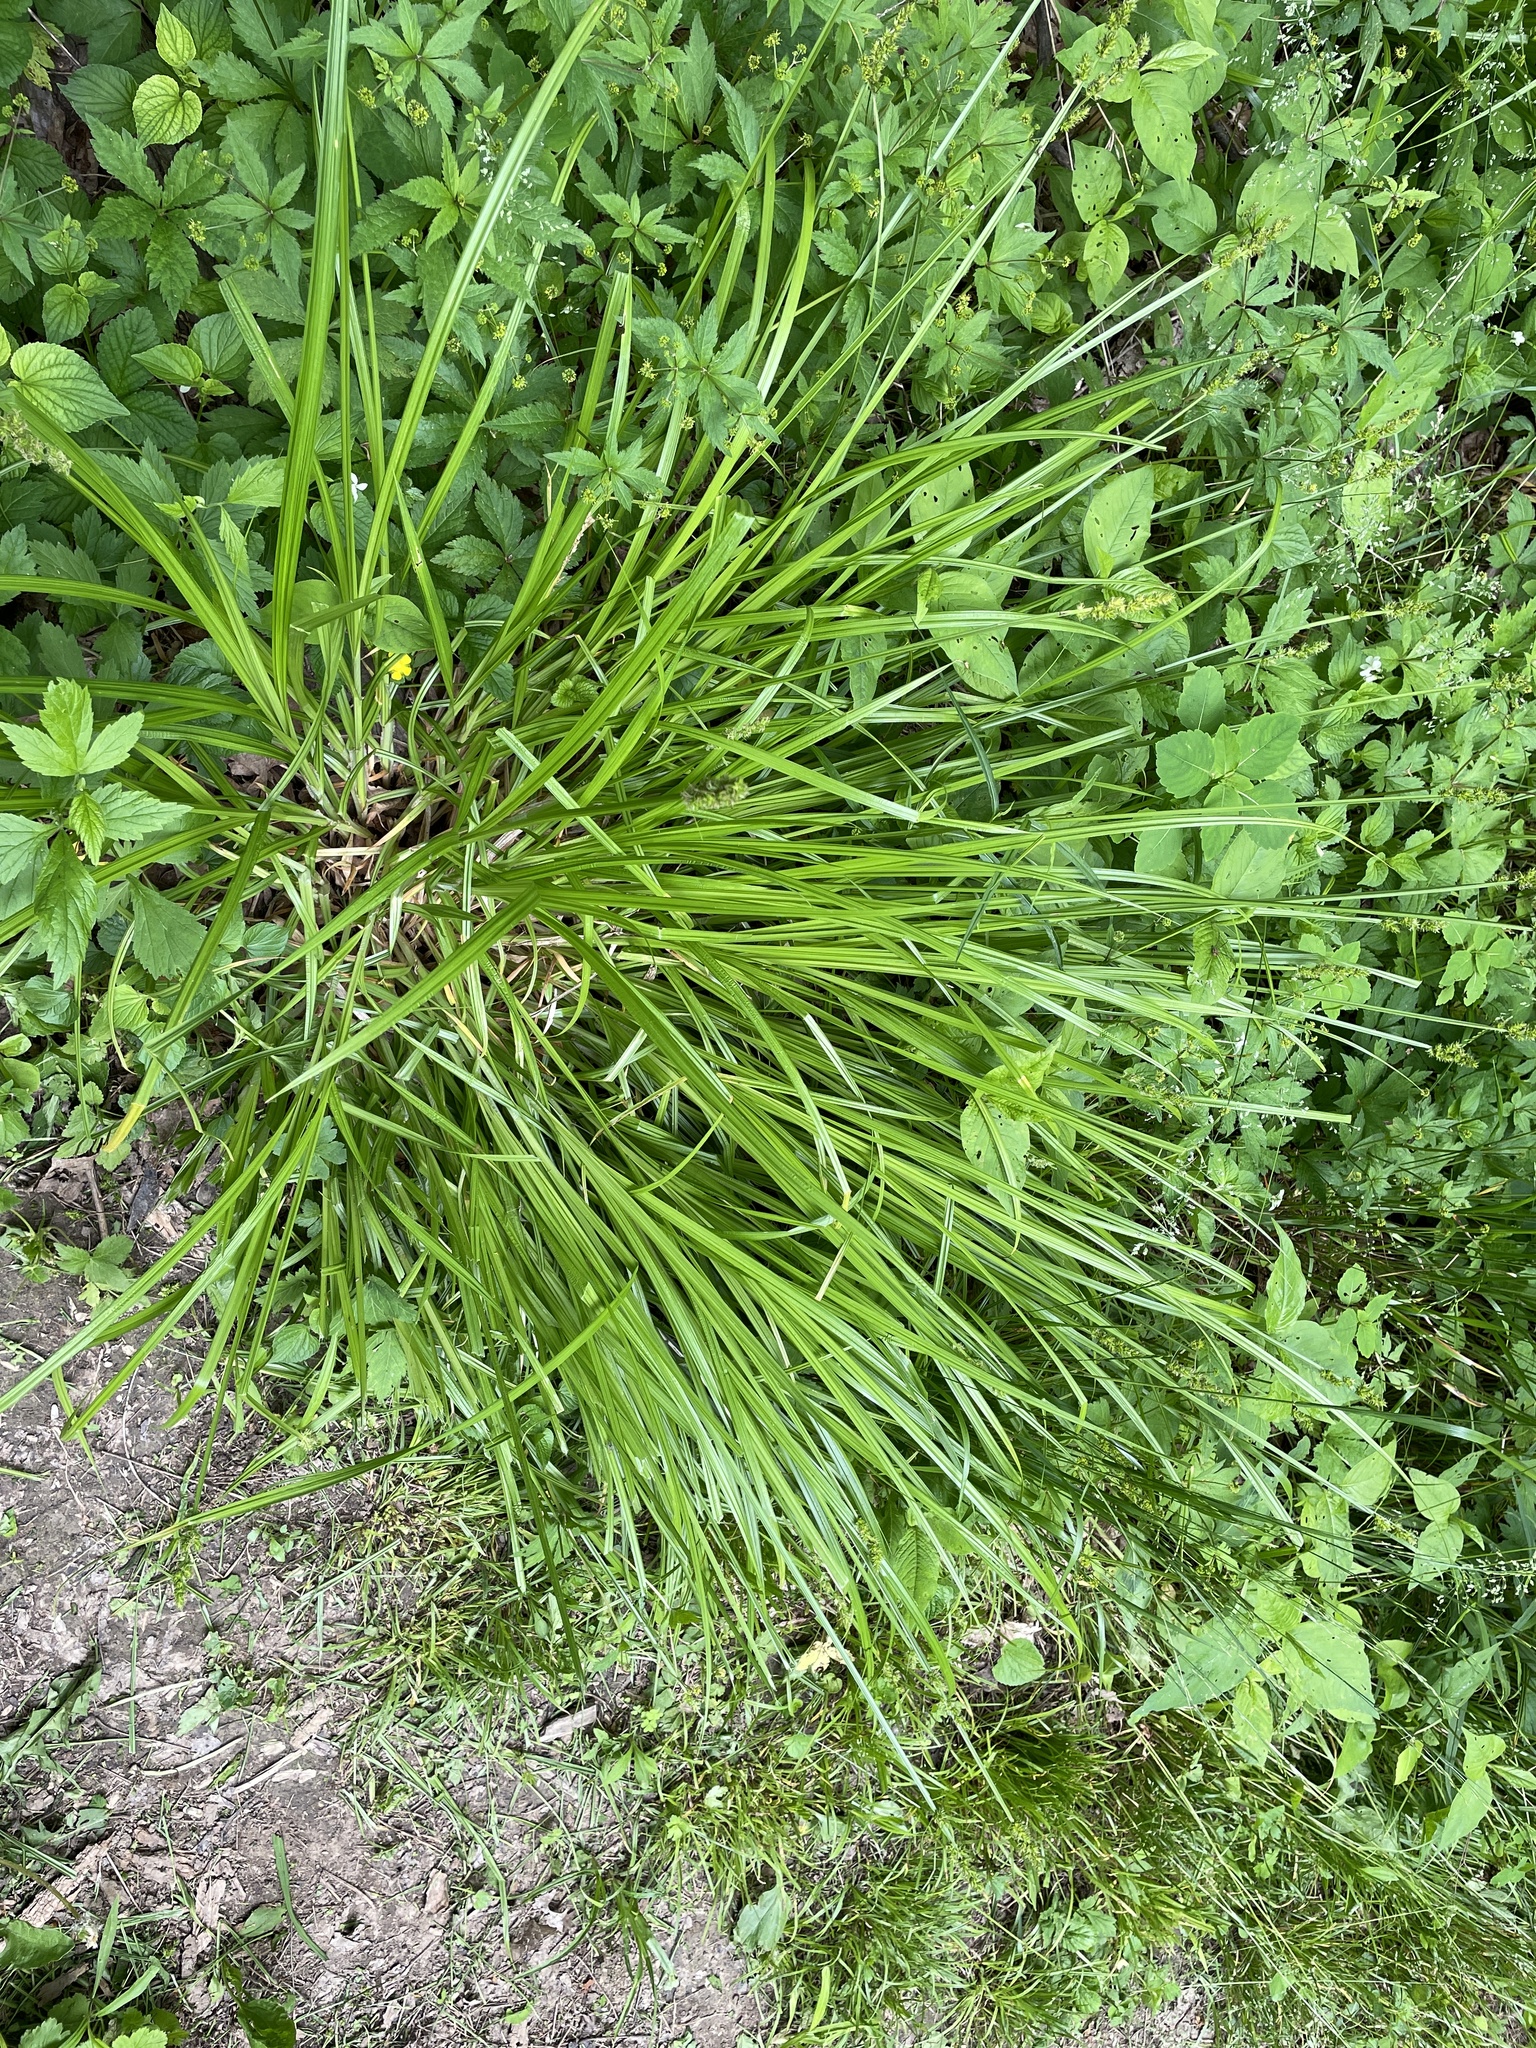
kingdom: Plantae
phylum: Tracheophyta
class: Liliopsida
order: Poales
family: Cyperaceae
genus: Carex
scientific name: Carex stipata
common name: Awl-fruited sedge
